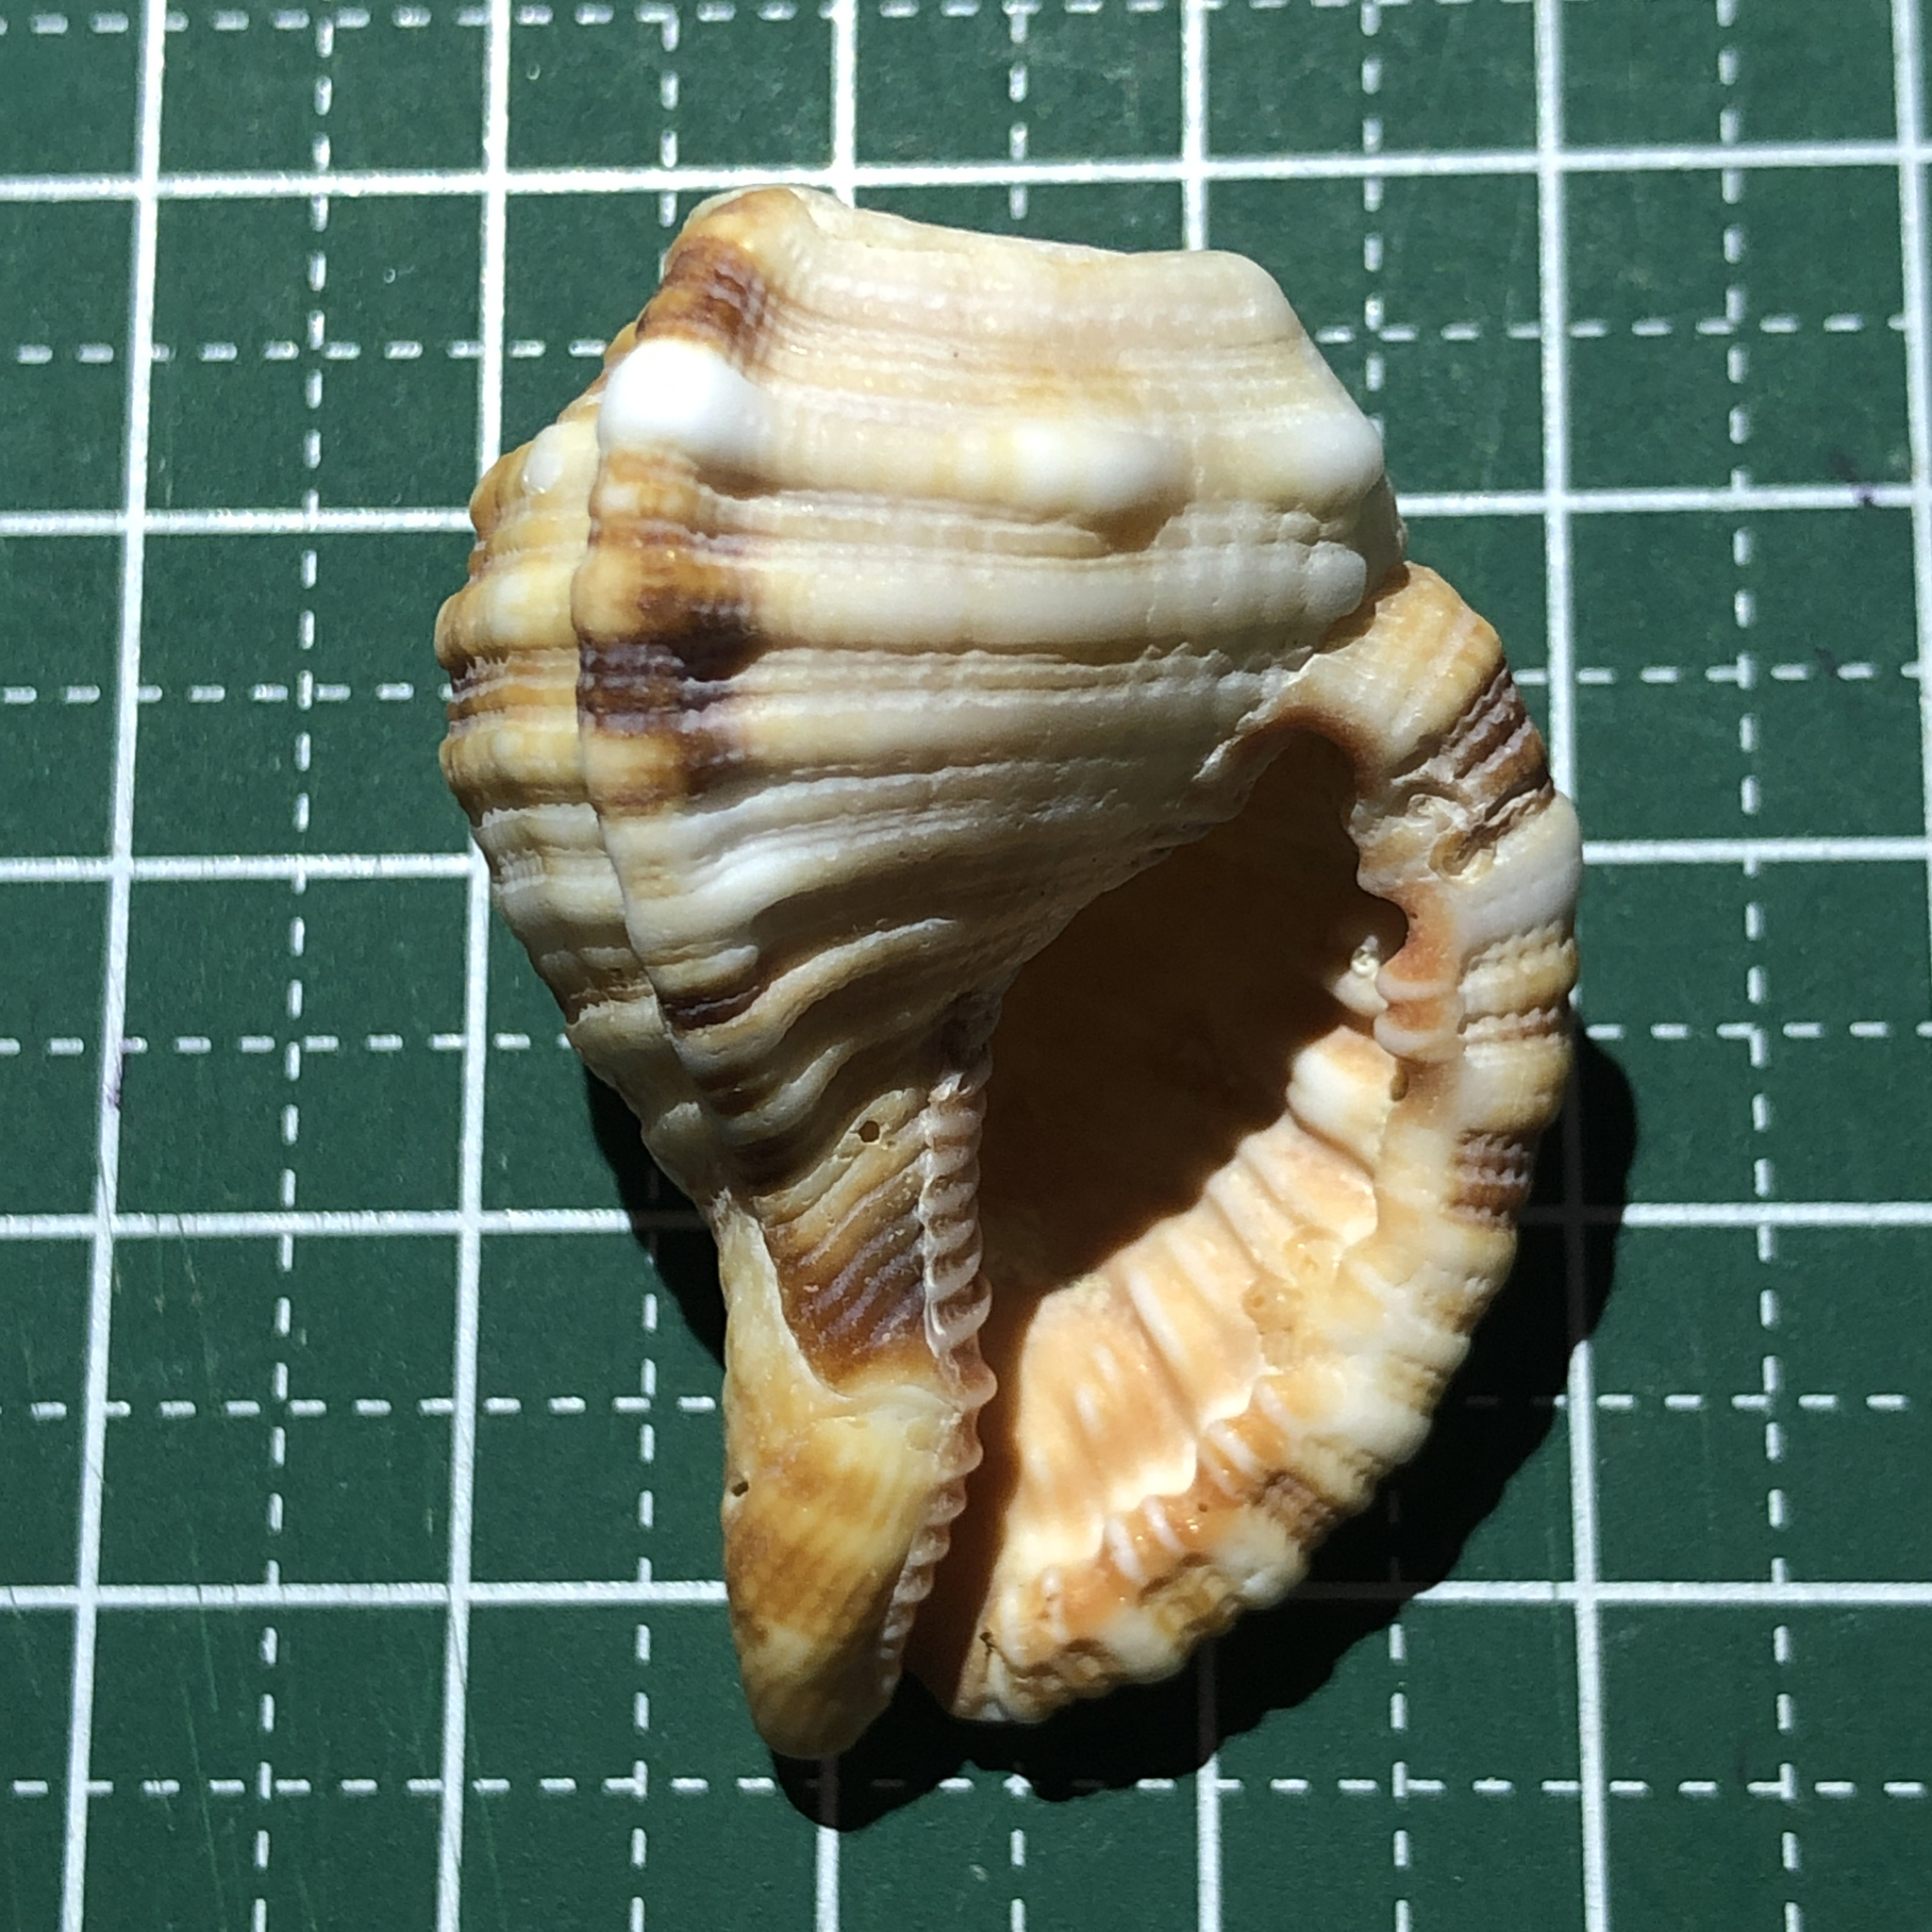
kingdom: Animalia
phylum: Mollusca
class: Gastropoda
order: Littorinimorpha
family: Cymatiidae
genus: Monoplex
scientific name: Monoplex pilearis
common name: Hairy triton
